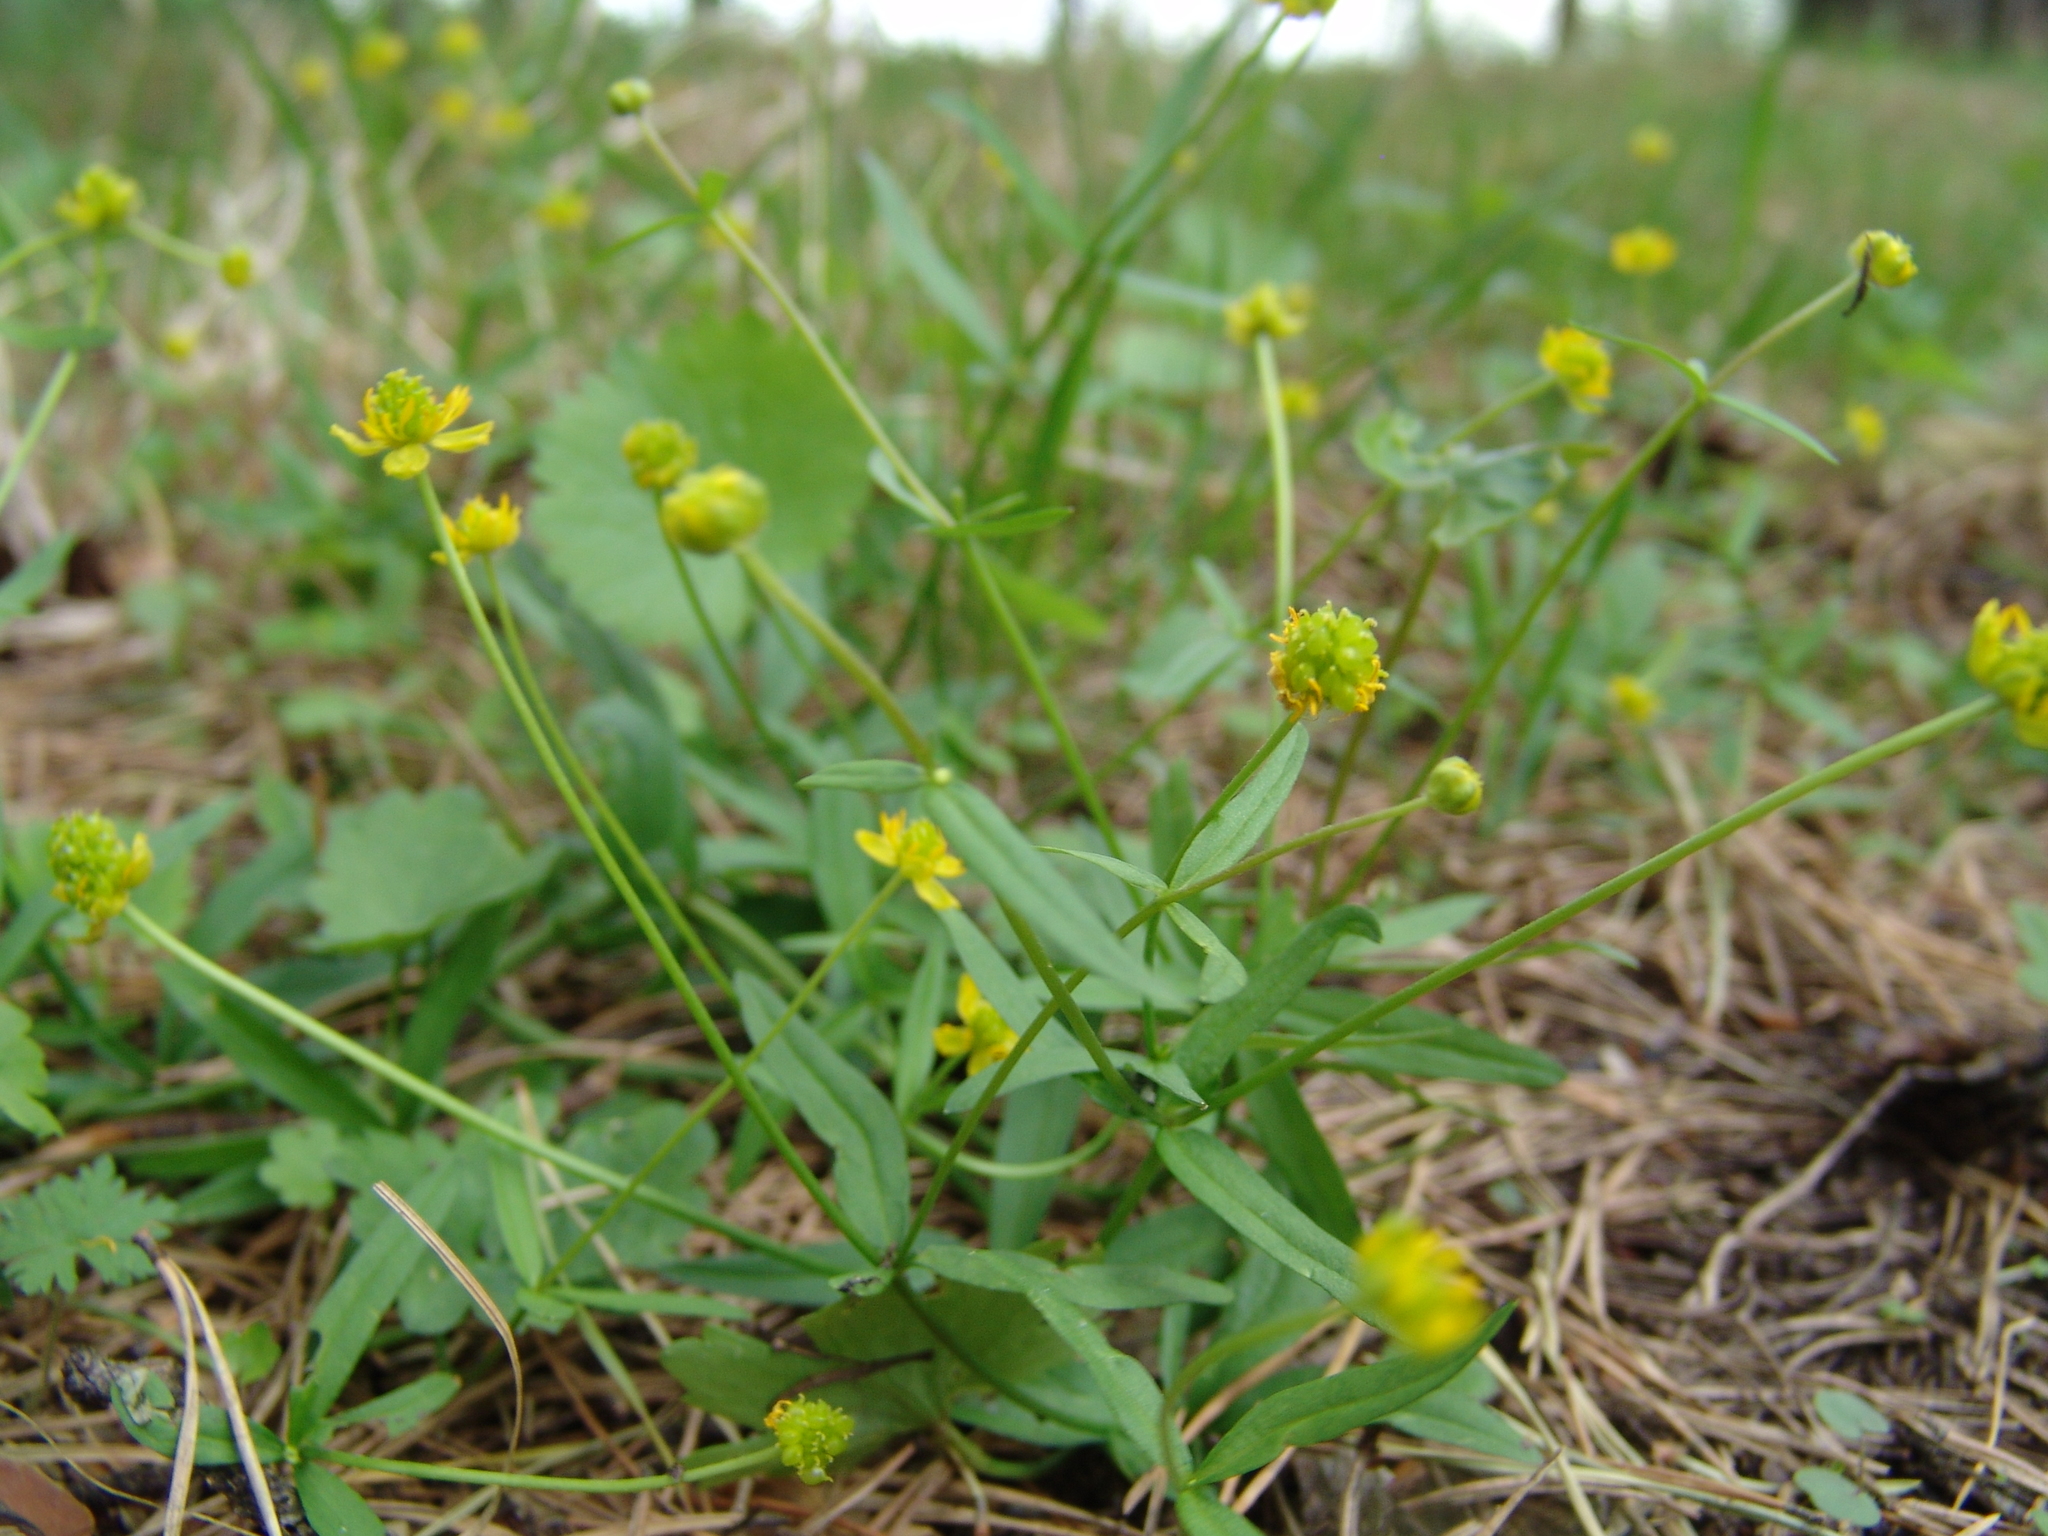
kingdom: Plantae
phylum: Tracheophyta
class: Magnoliopsida
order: Ranunculales
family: Ranunculaceae
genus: Ranunculus
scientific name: Ranunculus monophyllus
